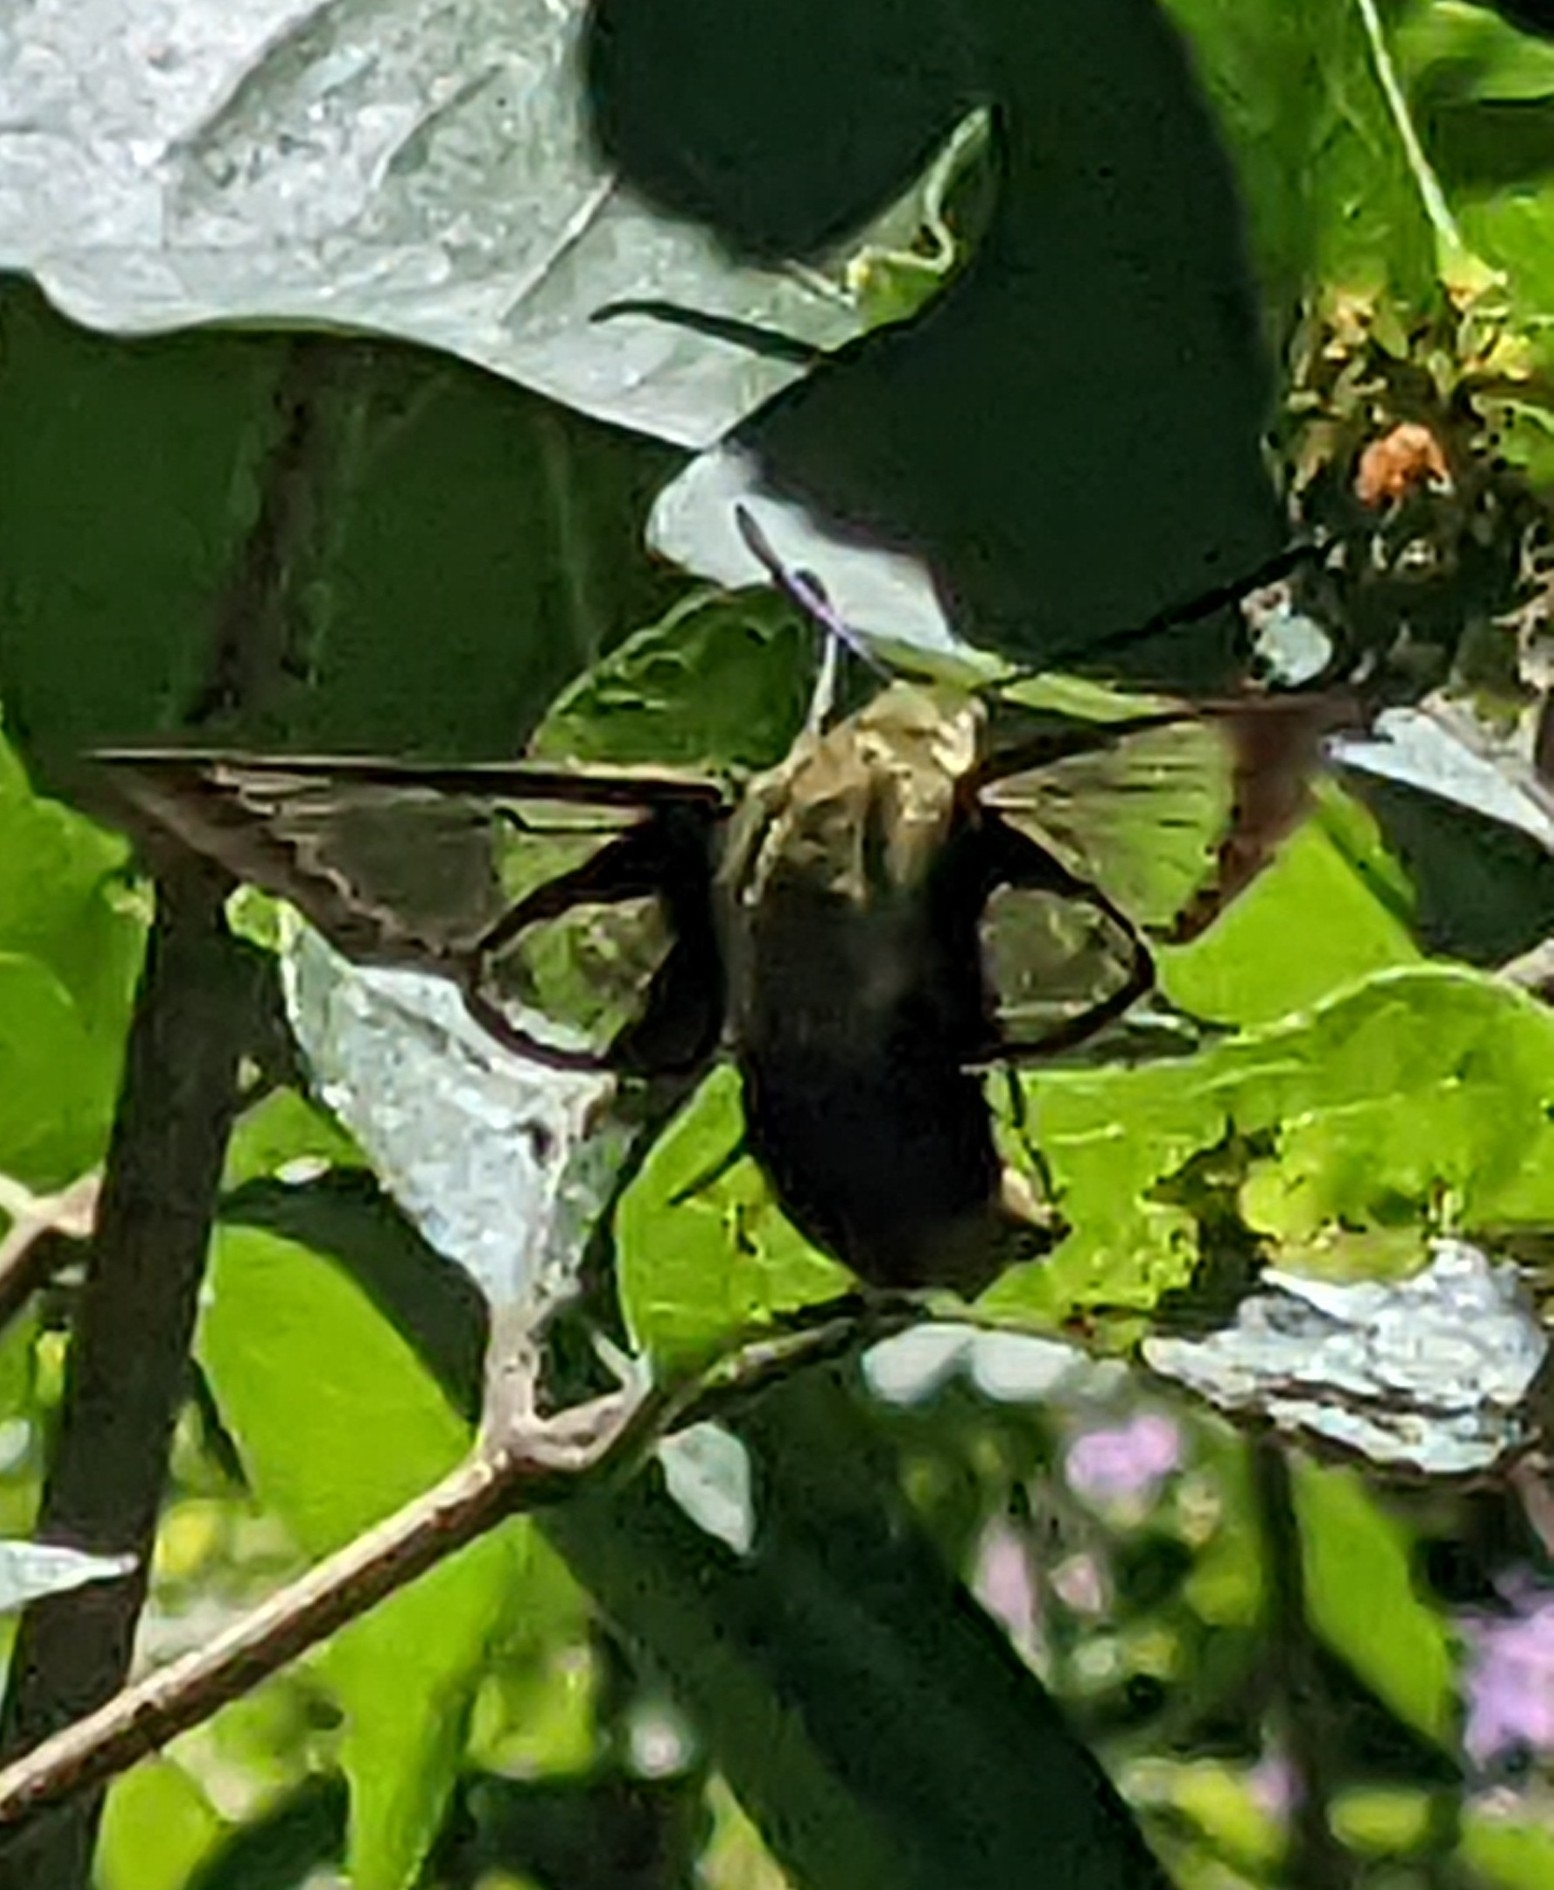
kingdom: Animalia
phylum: Arthropoda
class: Insecta
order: Lepidoptera
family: Sphingidae
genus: Hemaris
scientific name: Hemaris diffinis
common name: Bumblebee moth
